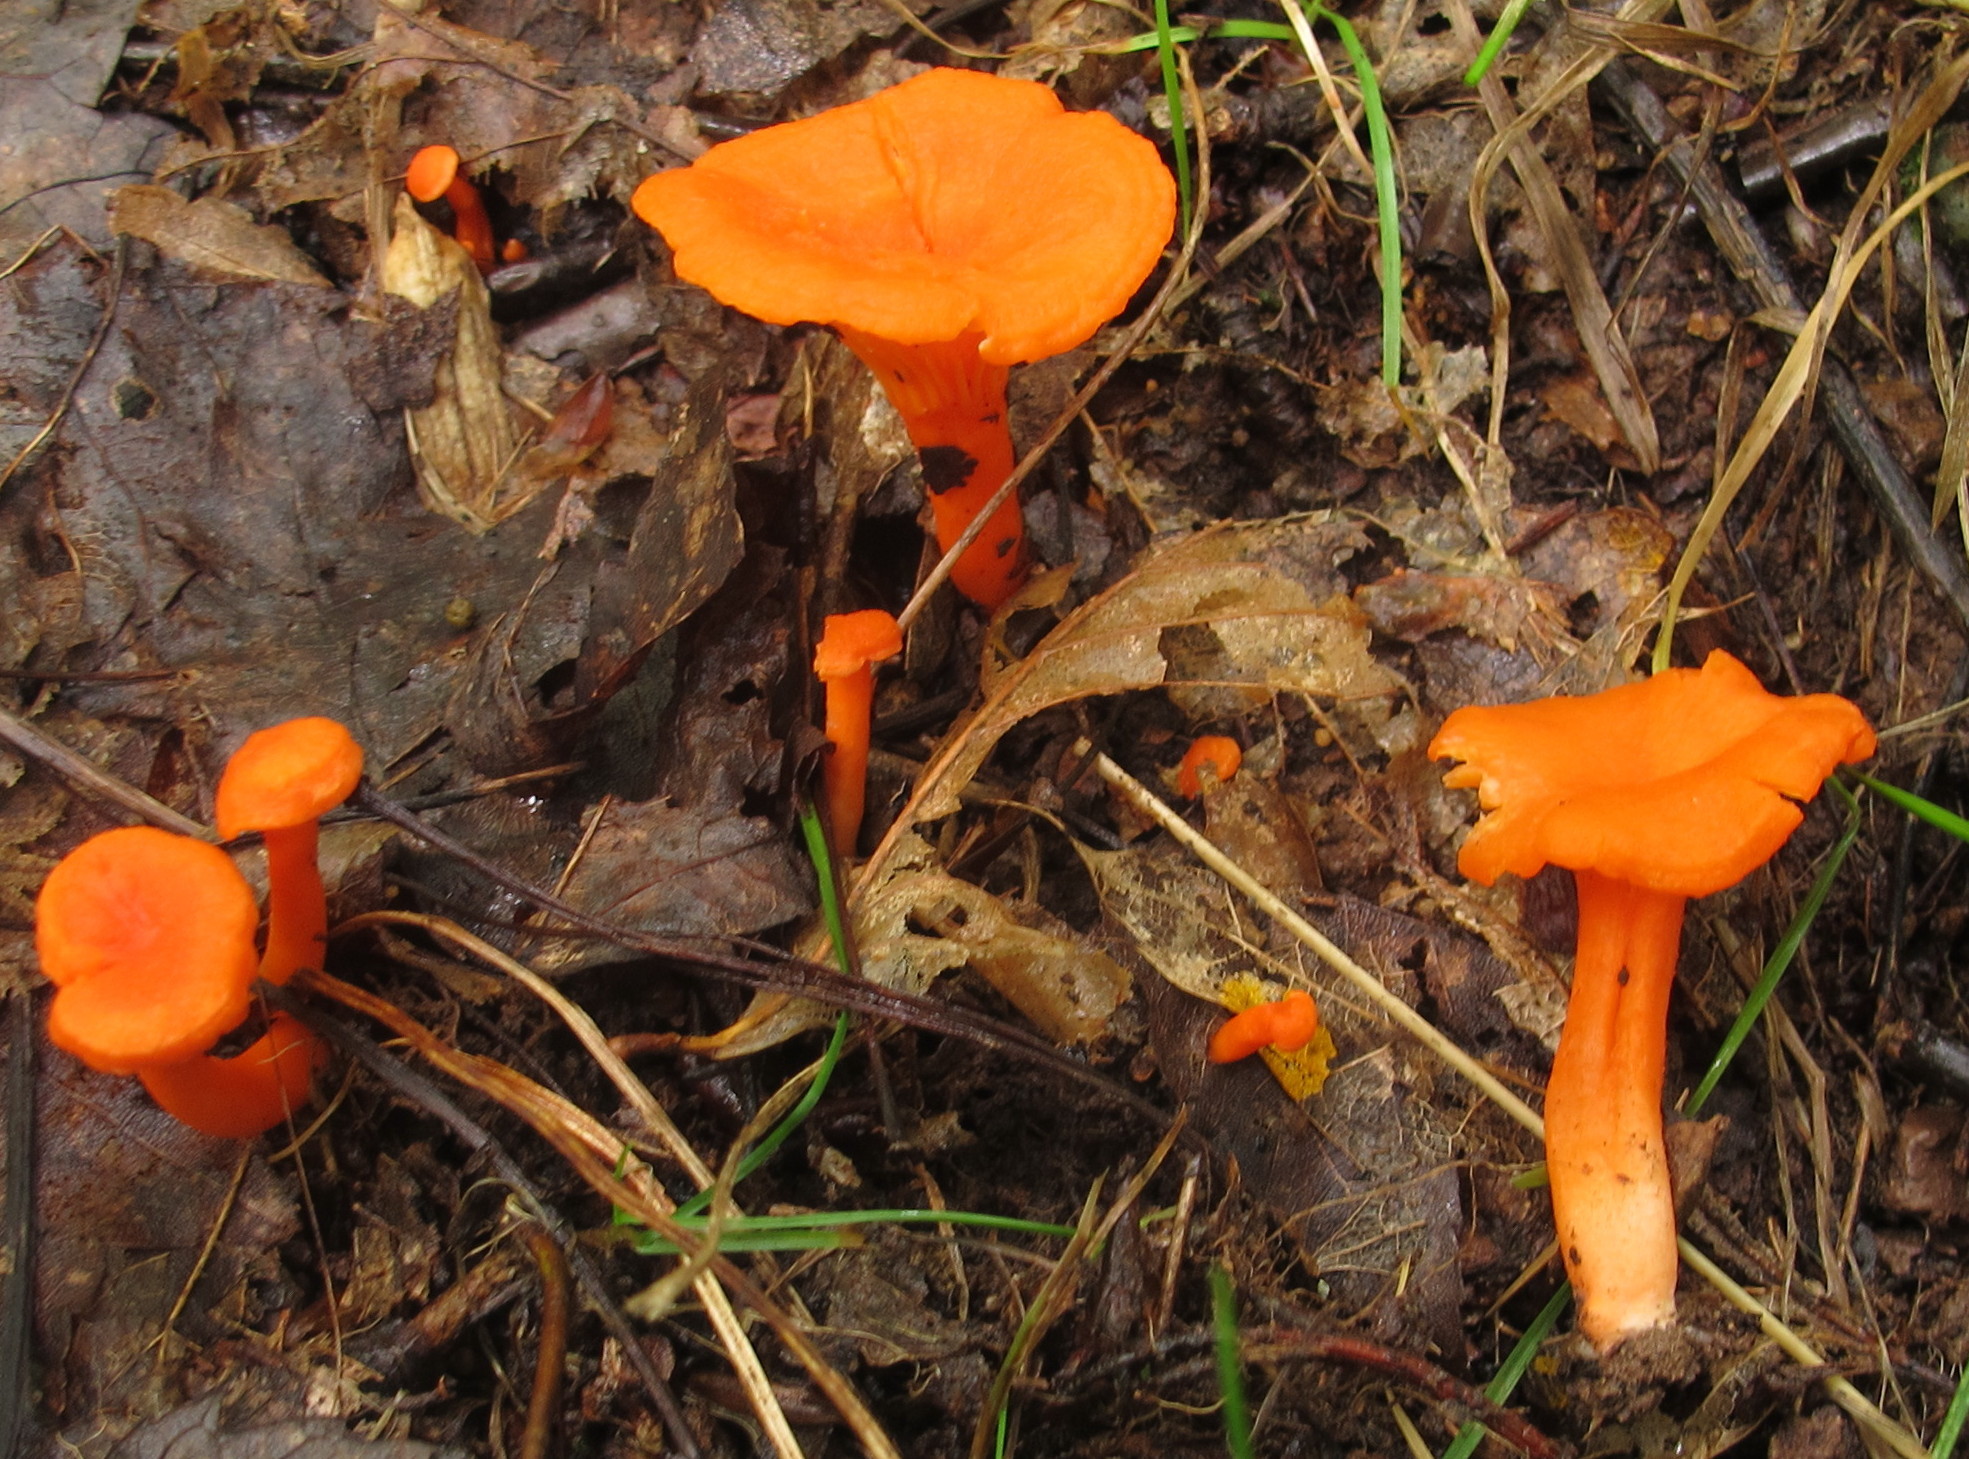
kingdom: Fungi
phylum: Basidiomycota
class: Agaricomycetes
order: Cantharellales
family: Hydnaceae
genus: Cantharellus
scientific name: Cantharellus cinnabarinus
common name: Cinnabar chanterelle
